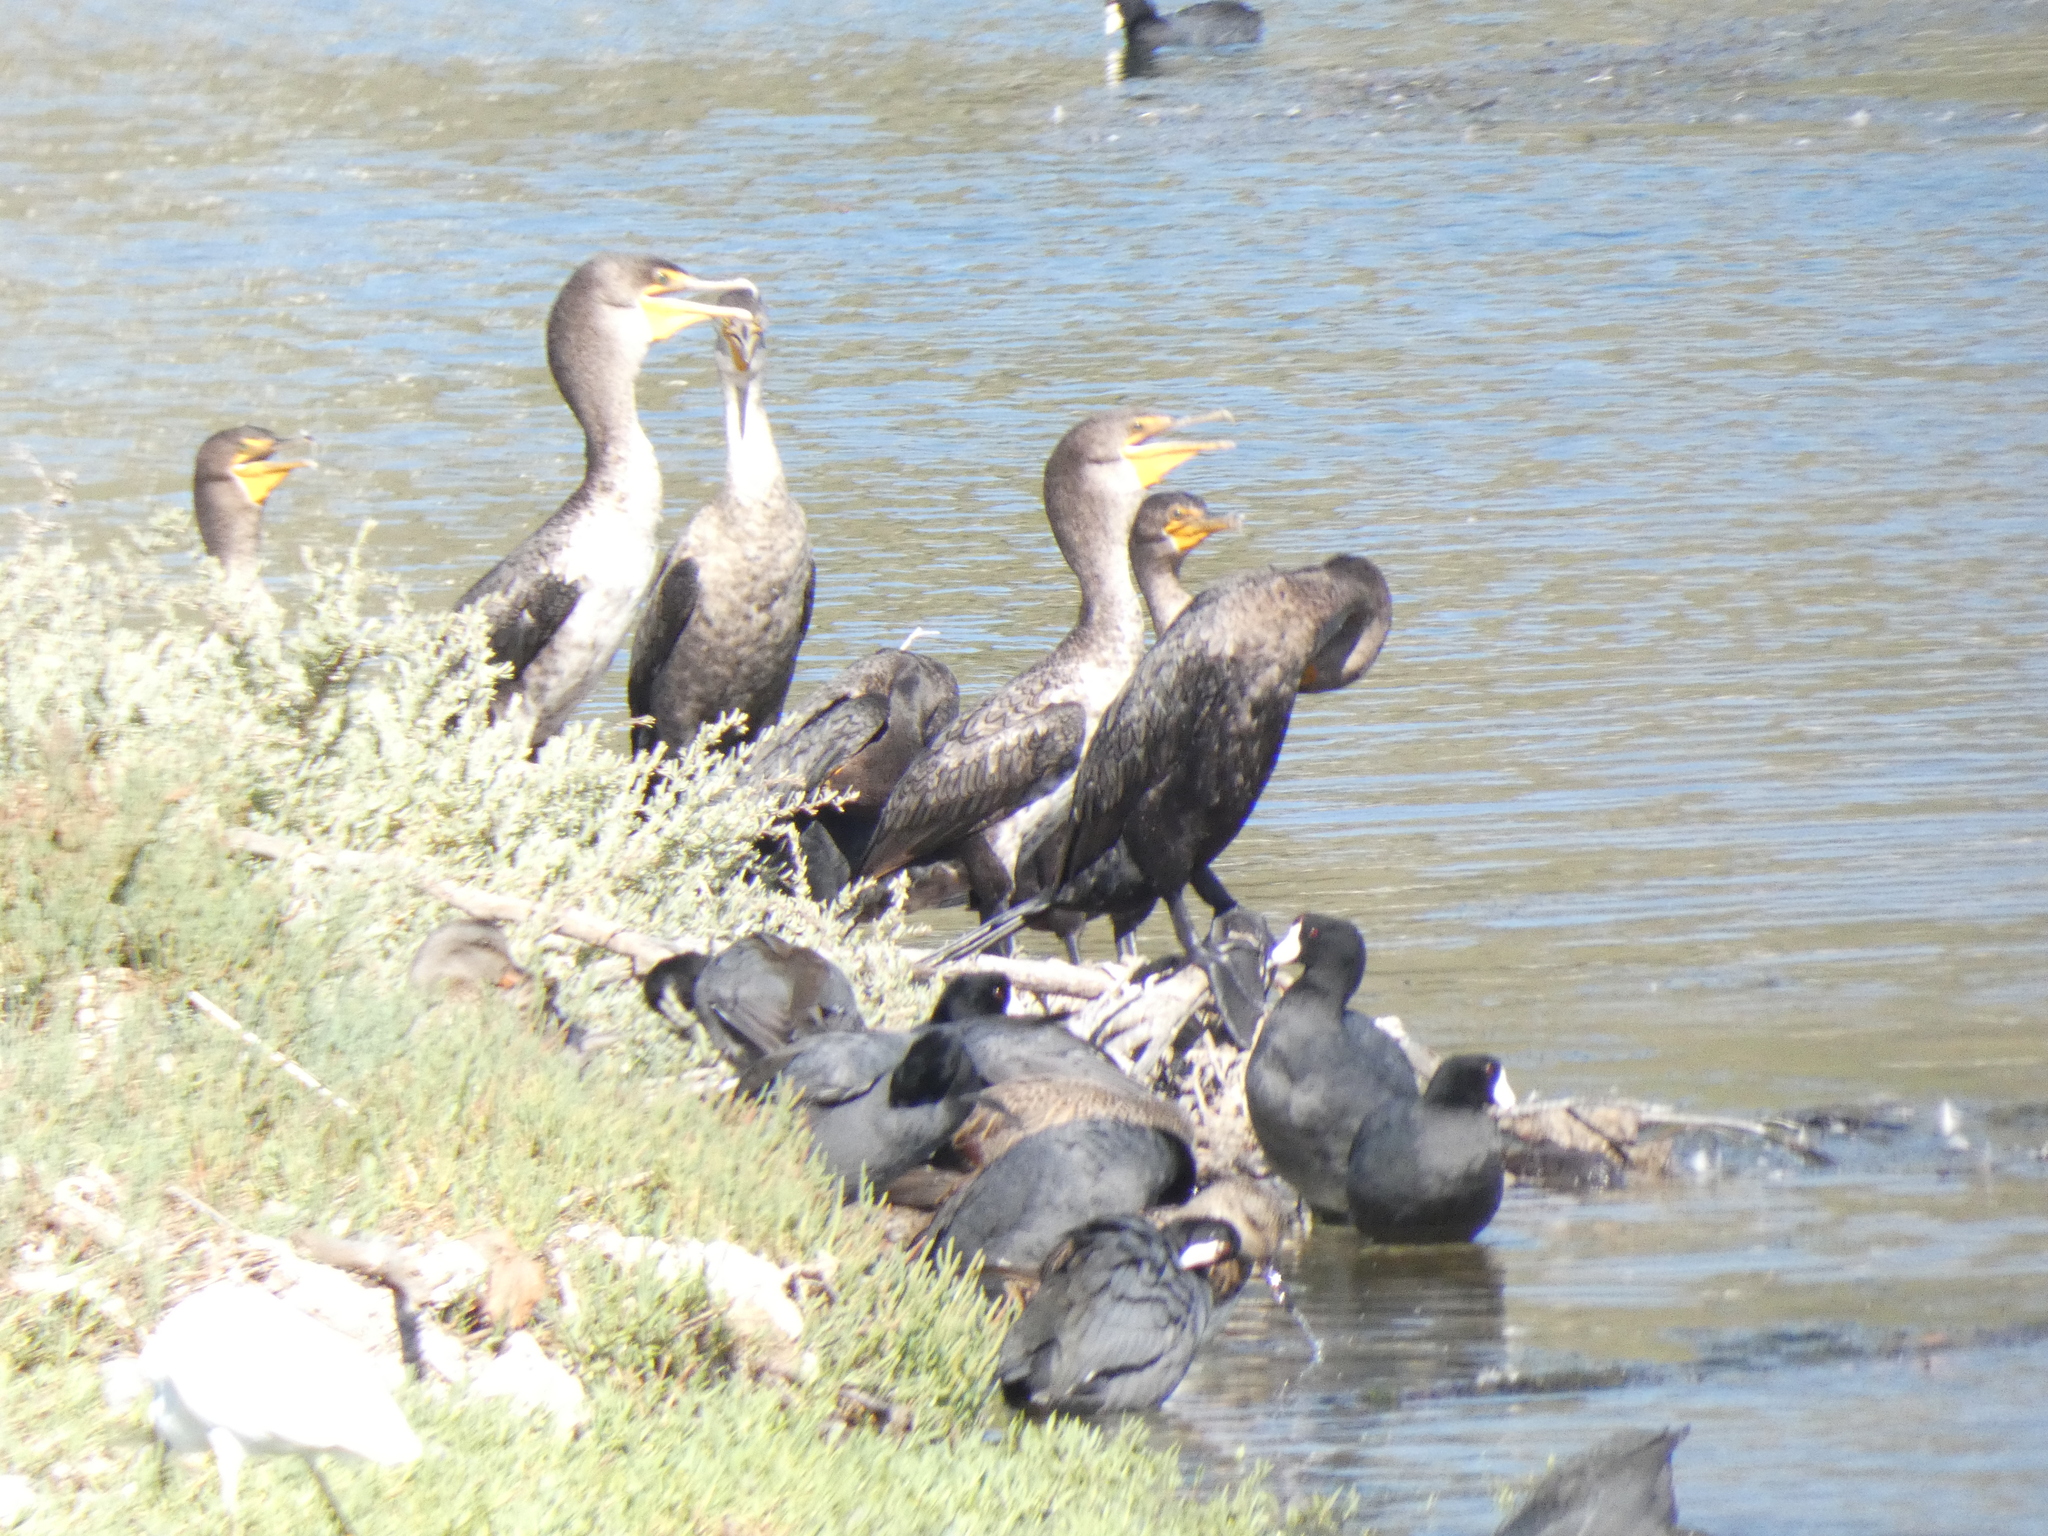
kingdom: Animalia
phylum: Chordata
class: Aves
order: Suliformes
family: Phalacrocoracidae
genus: Phalacrocorax
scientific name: Phalacrocorax auritus
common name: Double-crested cormorant
